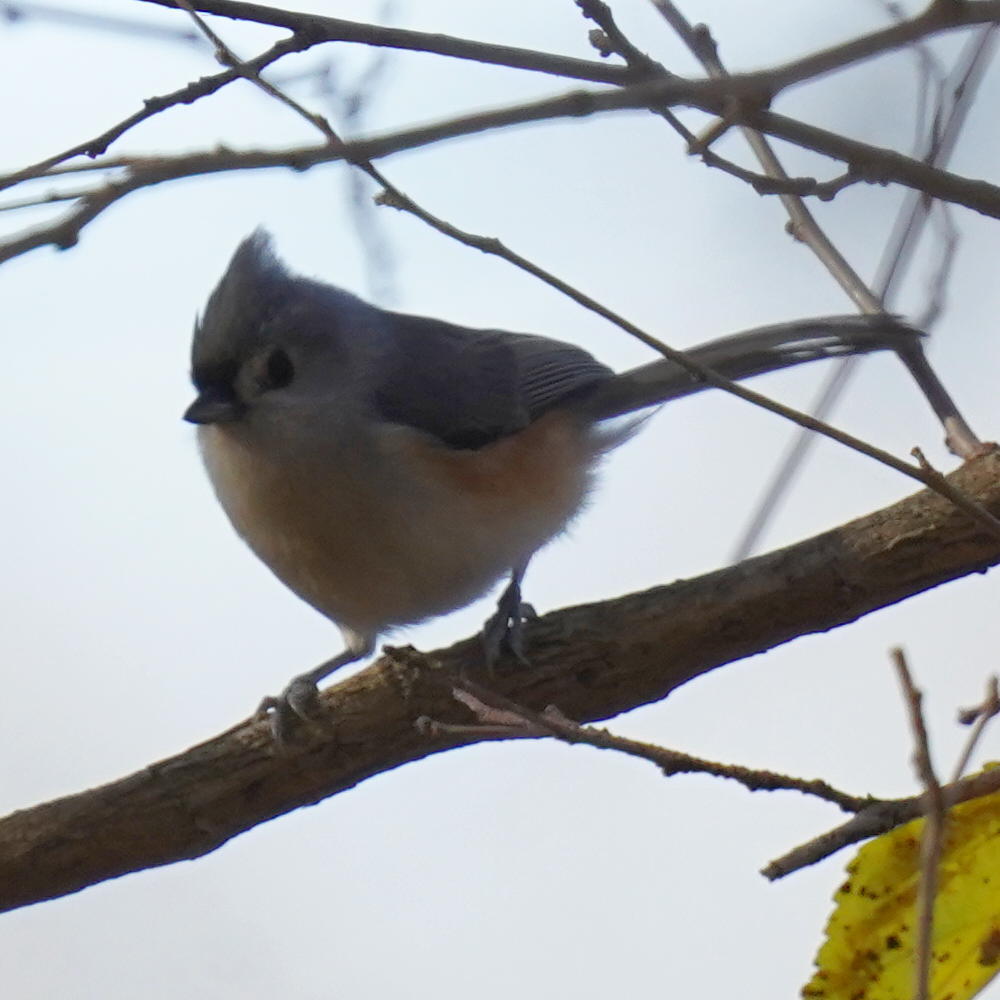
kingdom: Animalia
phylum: Chordata
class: Aves
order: Passeriformes
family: Paridae
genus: Baeolophus
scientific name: Baeolophus bicolor
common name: Tufted titmouse
